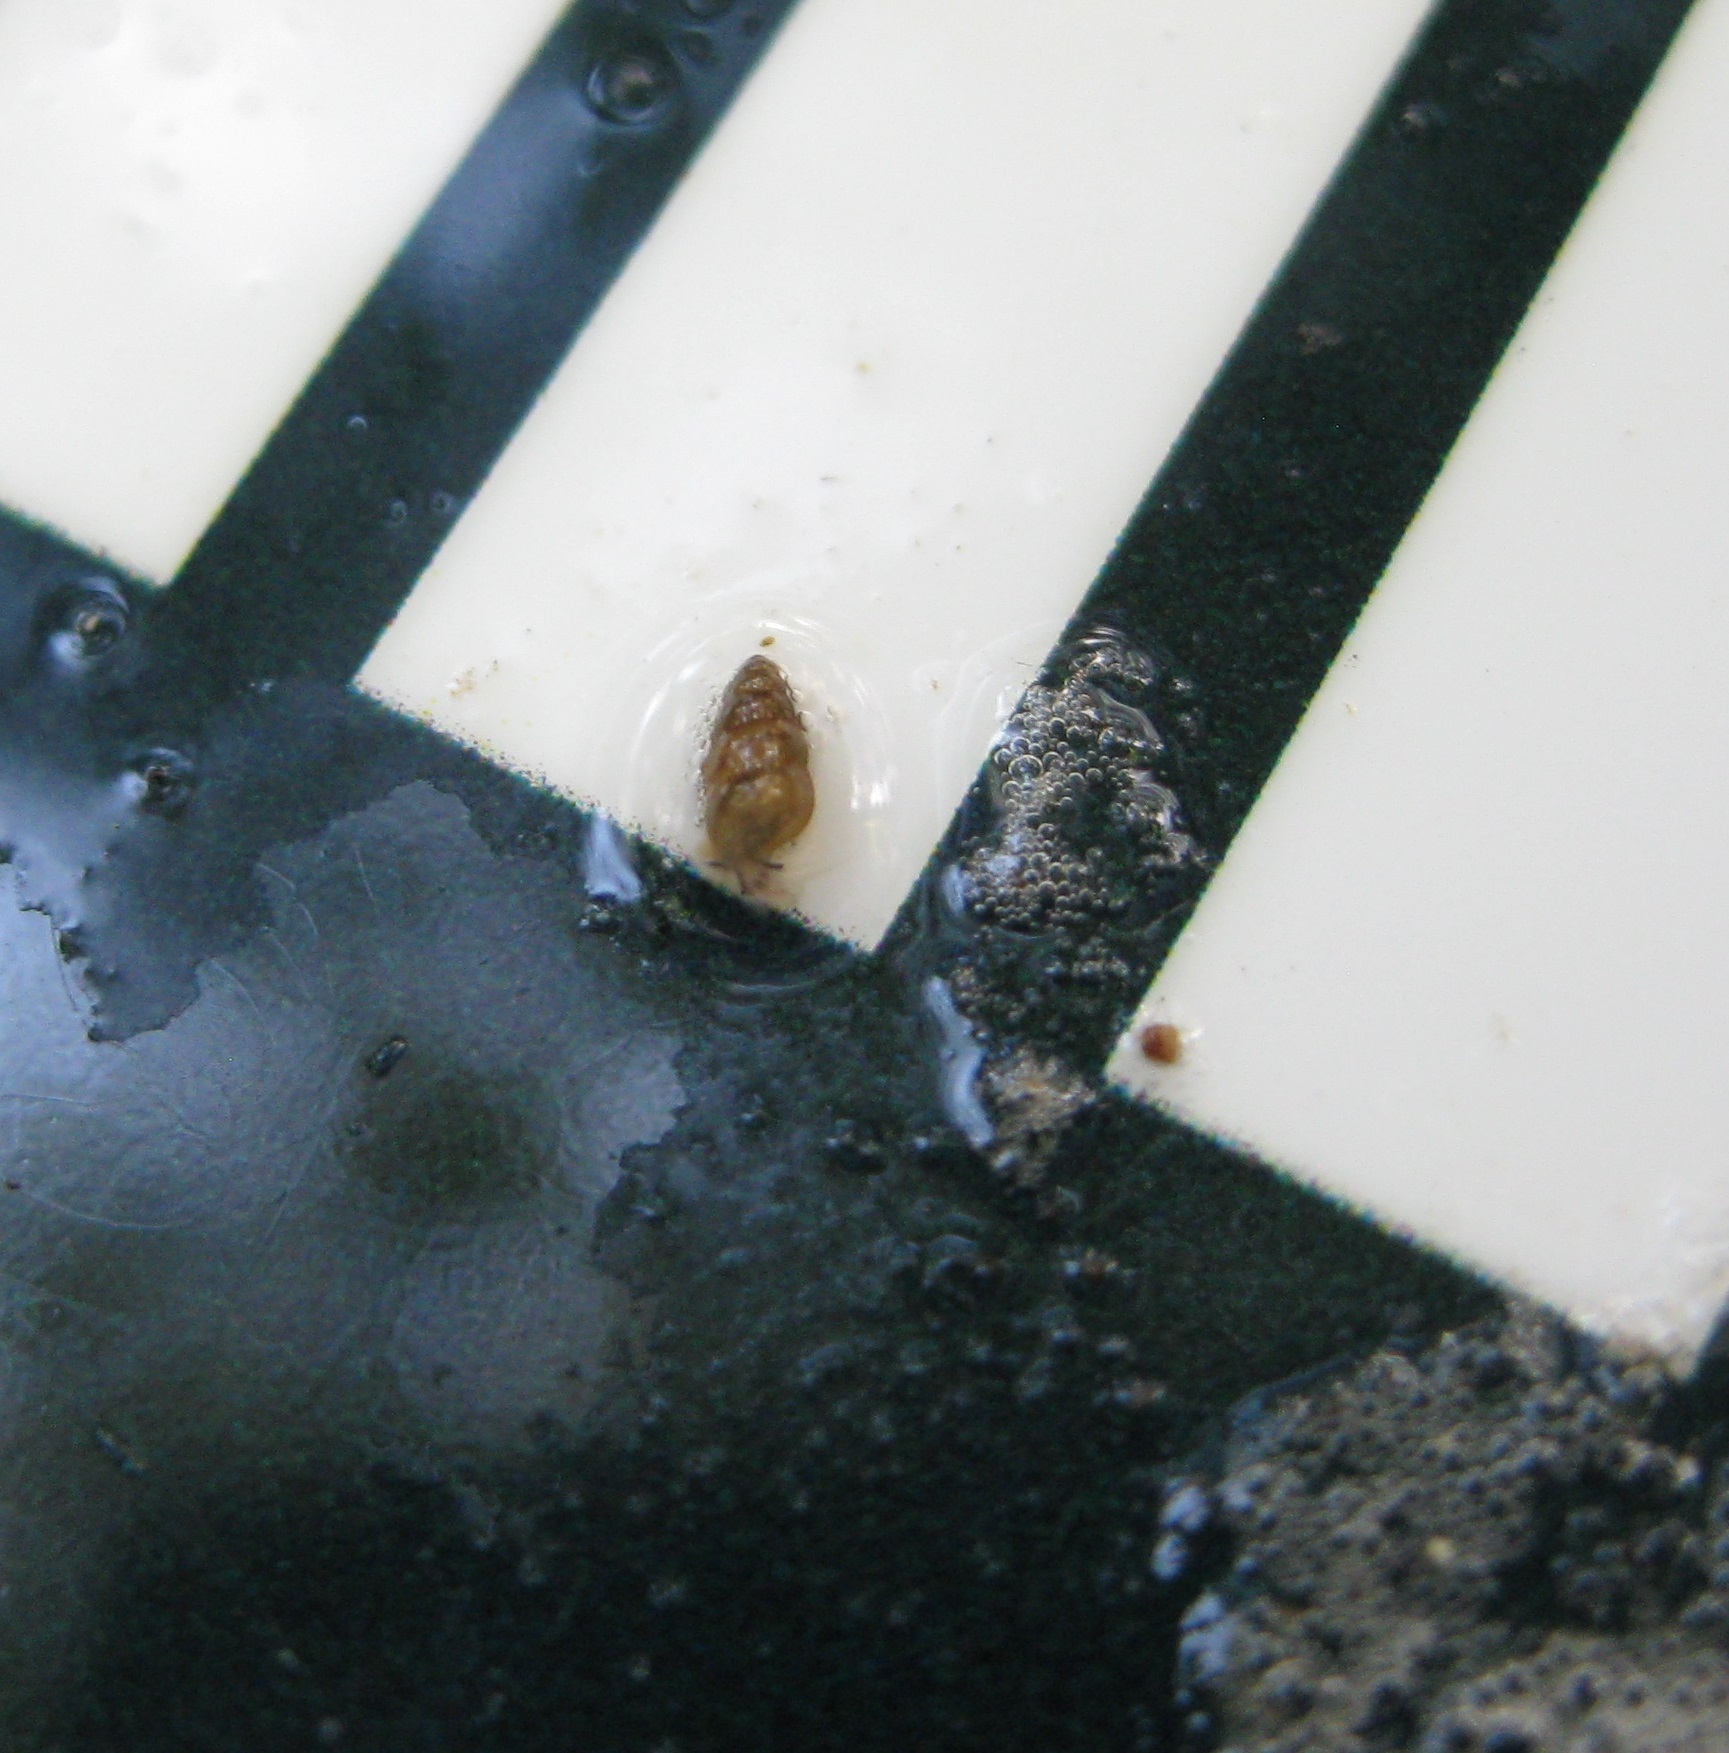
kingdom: Animalia
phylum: Mollusca
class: Gastropoda
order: Littorinimorpha
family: Tateidae
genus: Potamopyrgus
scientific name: Potamopyrgus antipodarum
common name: Jenkins' spire snail
